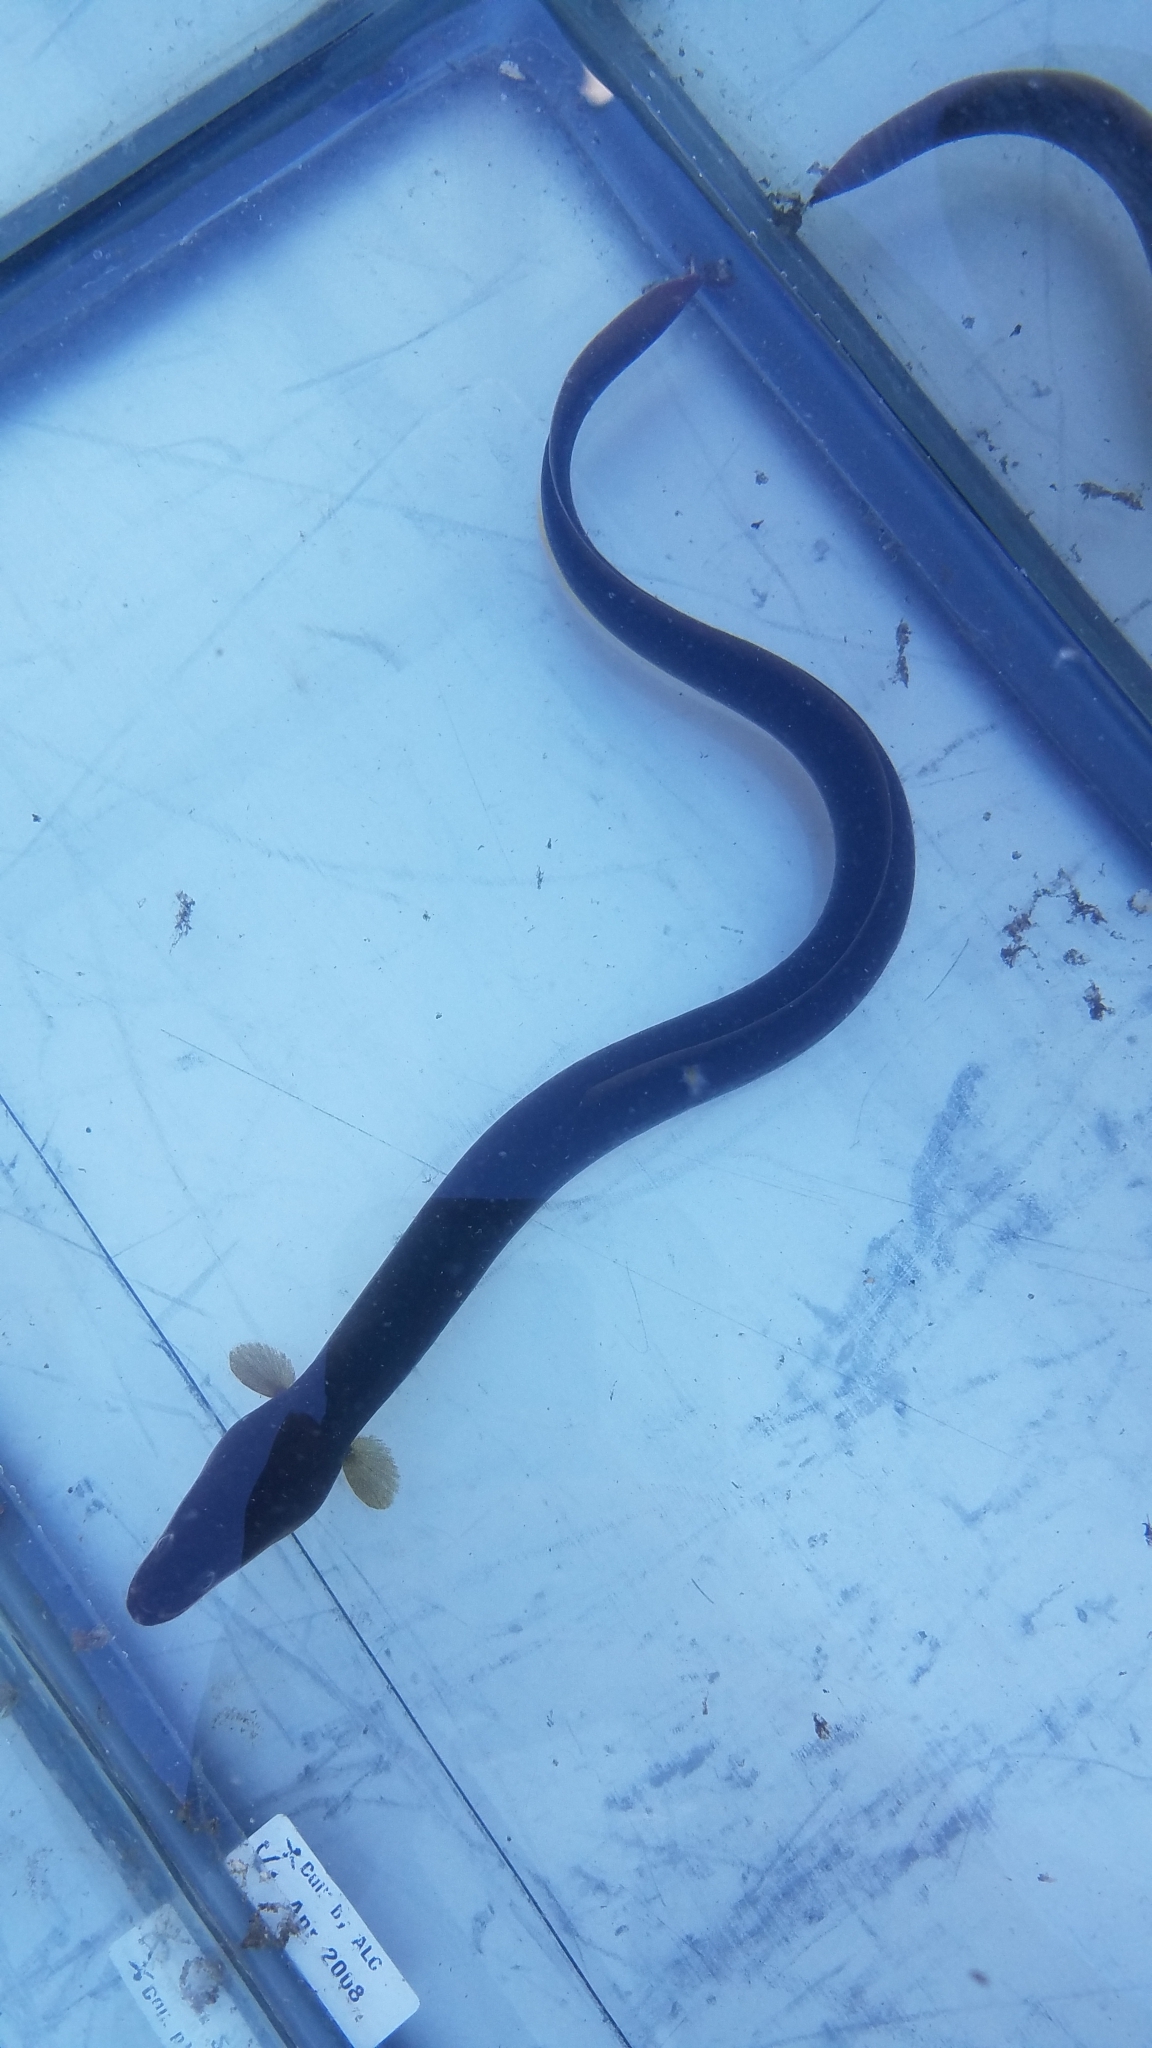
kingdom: Animalia
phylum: Chordata
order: Anguilliformes
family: Anguillidae
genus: Anguilla
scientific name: Anguilla rostrata
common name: American eel
